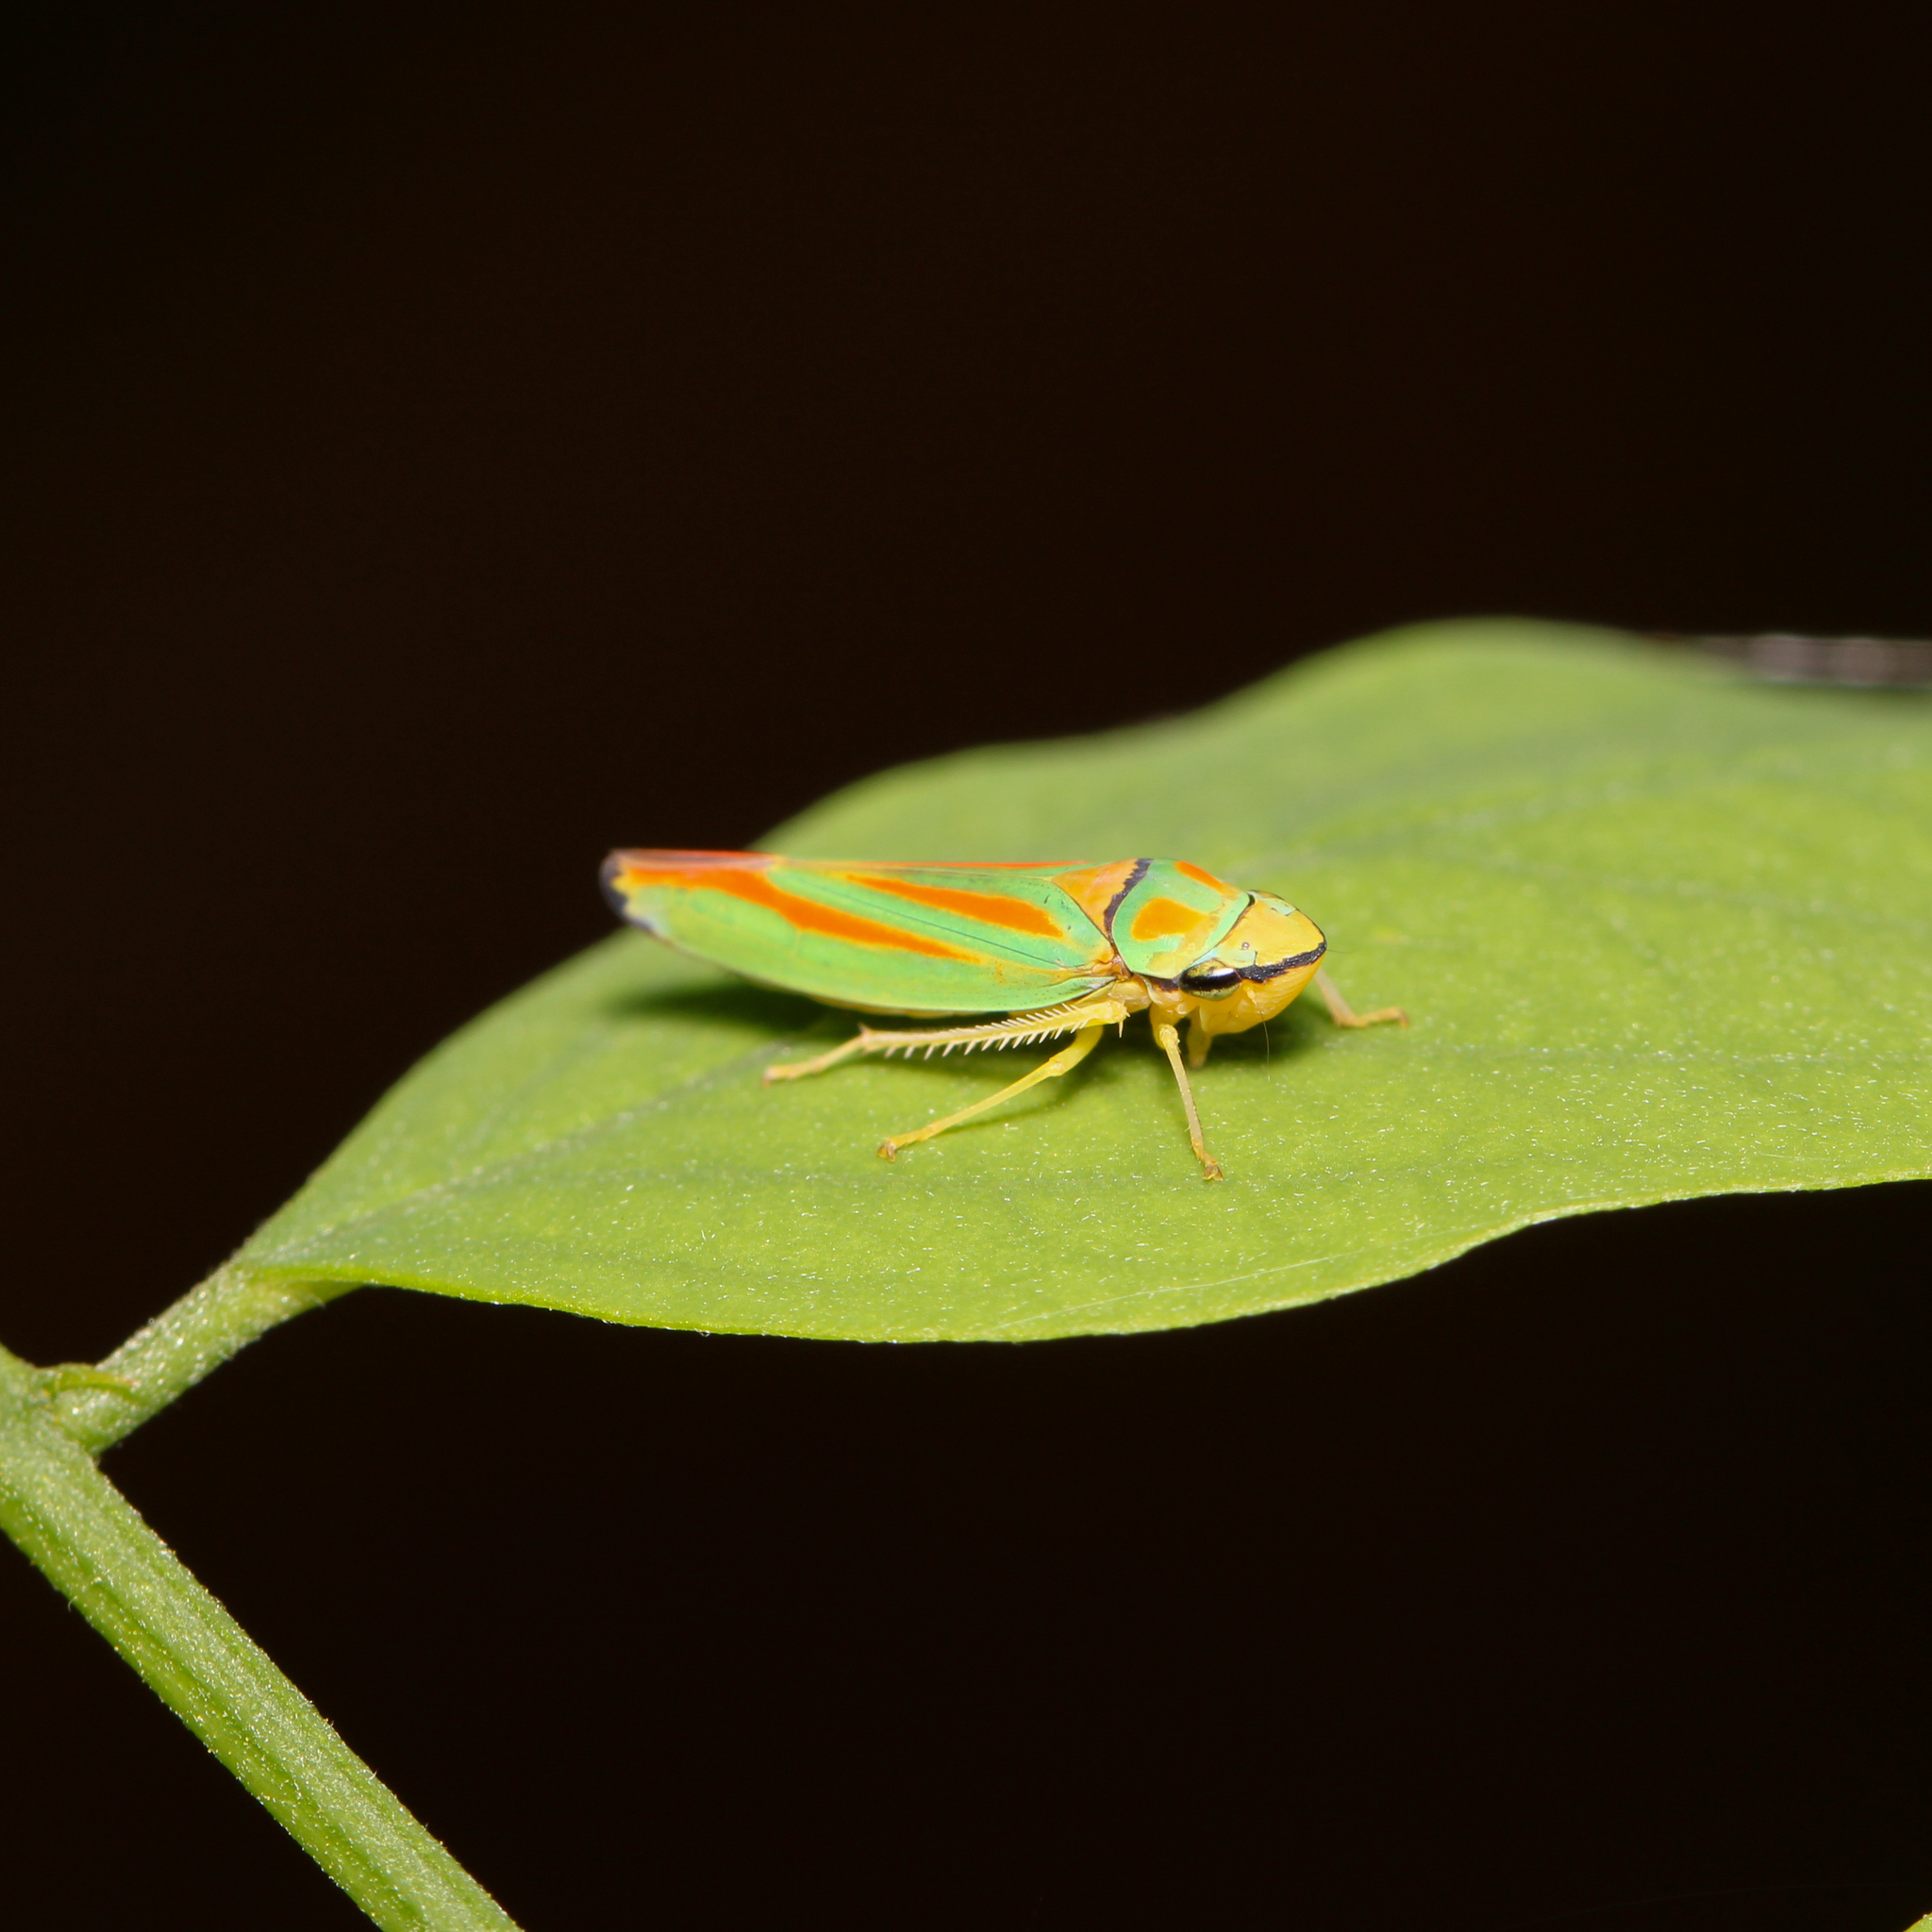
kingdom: Animalia
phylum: Arthropoda
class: Insecta
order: Hemiptera
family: Cicadellidae
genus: Graphocephala
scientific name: Graphocephala fennahi
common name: Rhododendron leafhopper
